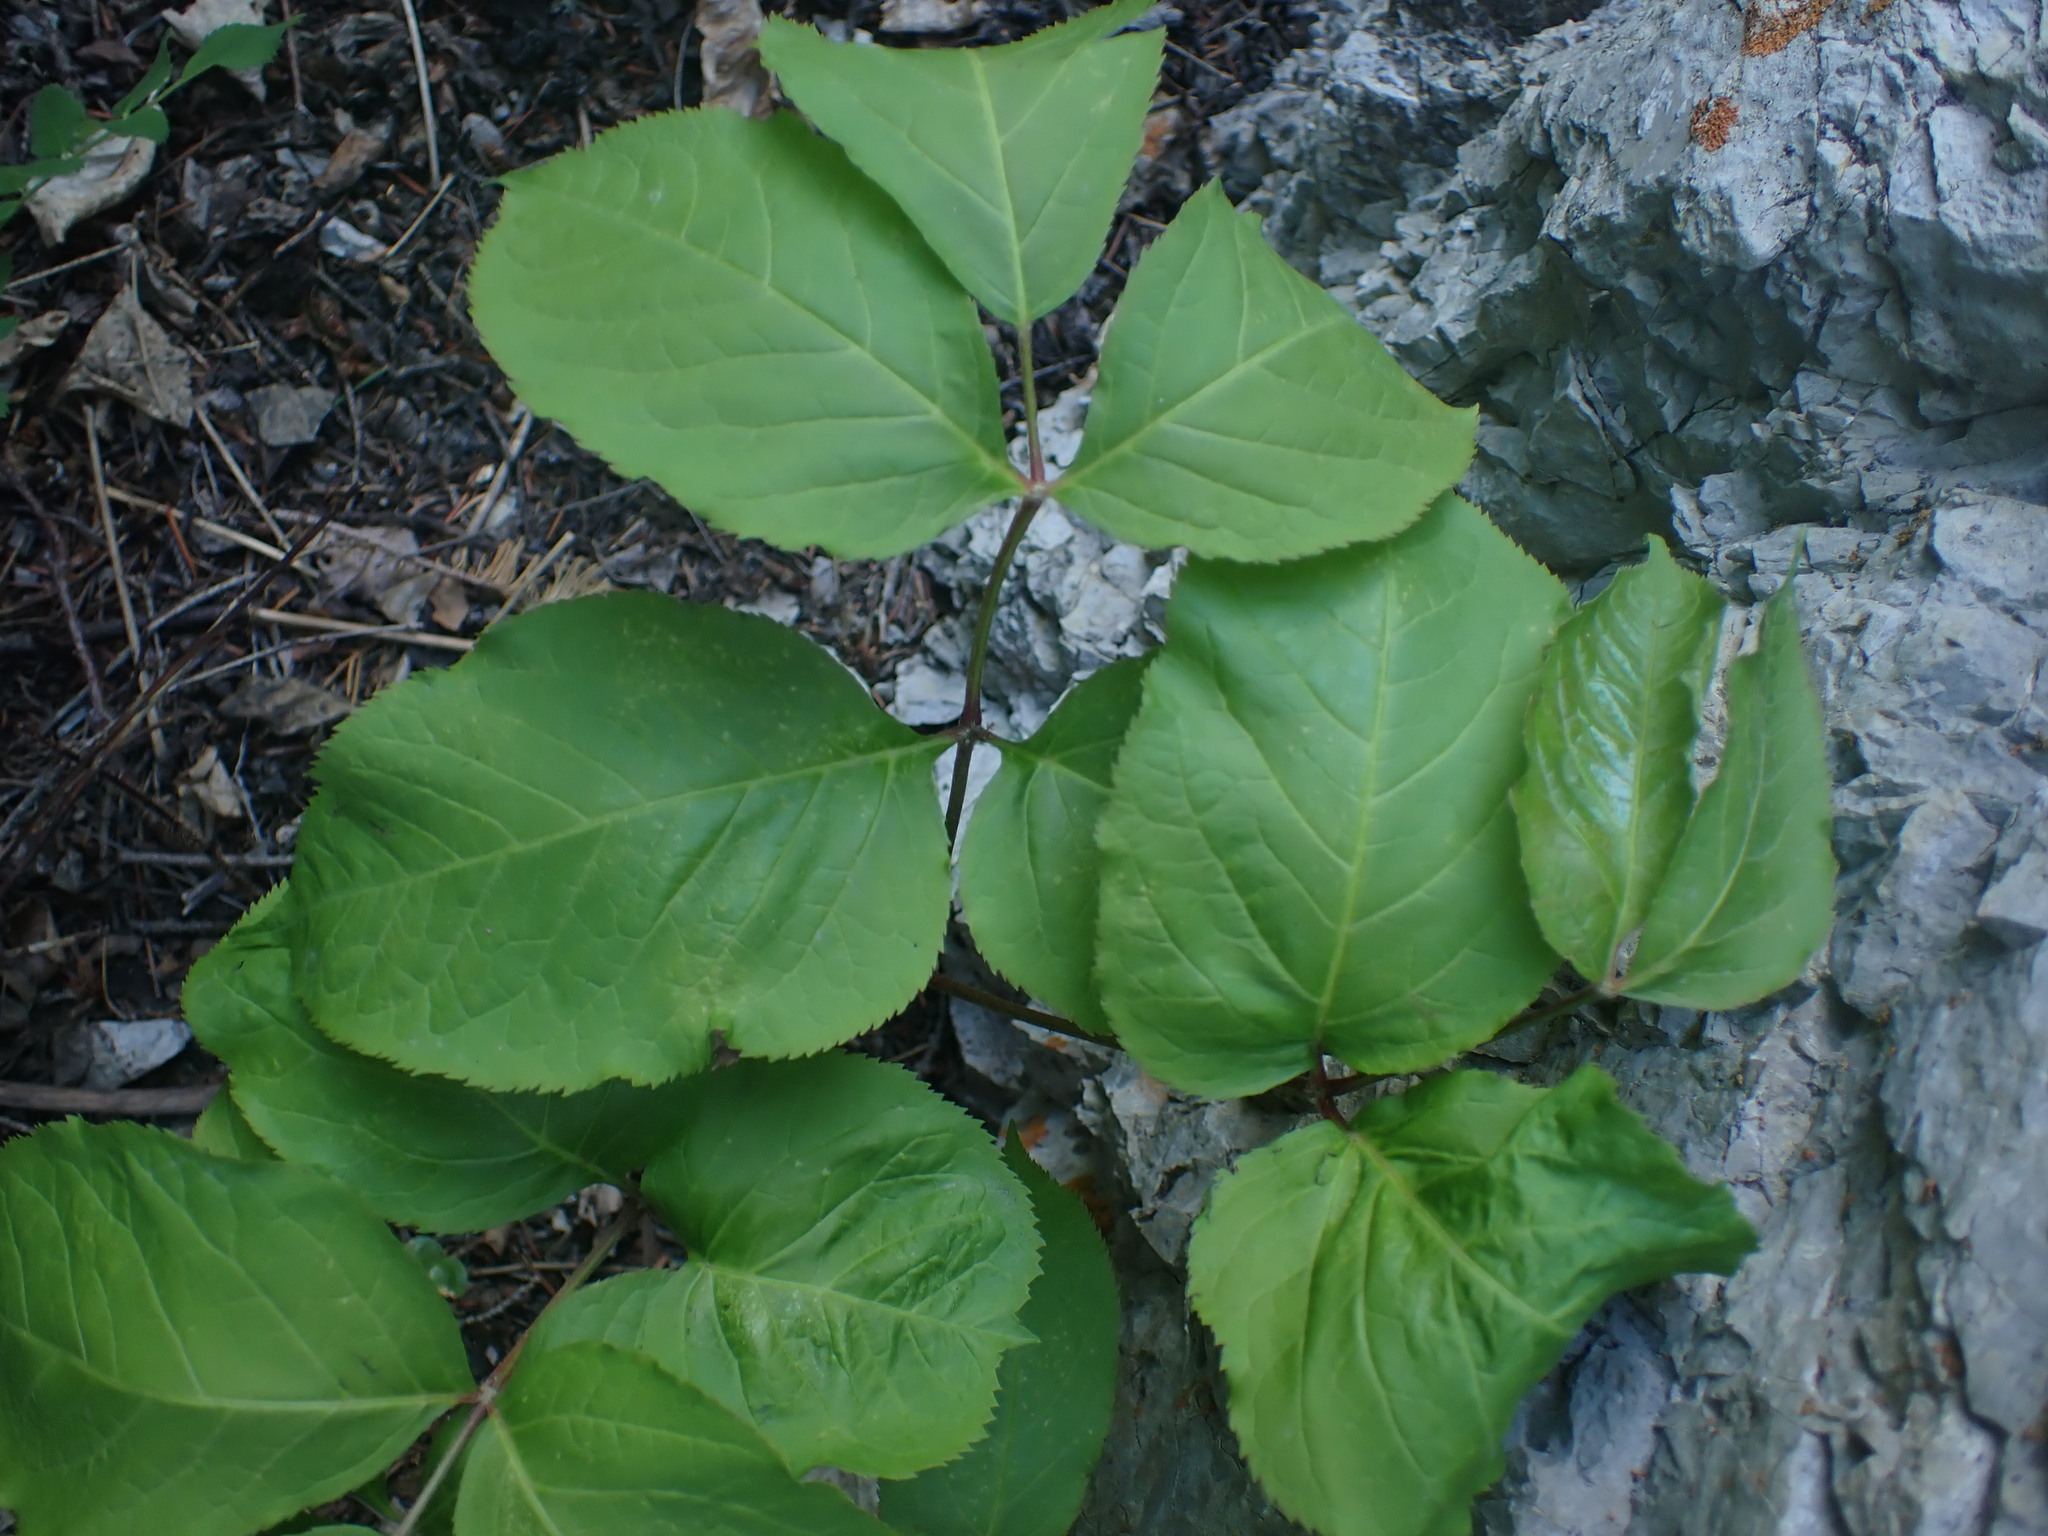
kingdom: Plantae
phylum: Tracheophyta
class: Magnoliopsida
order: Apiales
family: Araliaceae
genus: Aralia
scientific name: Aralia nudicaulis
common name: Wild sarsaparilla
